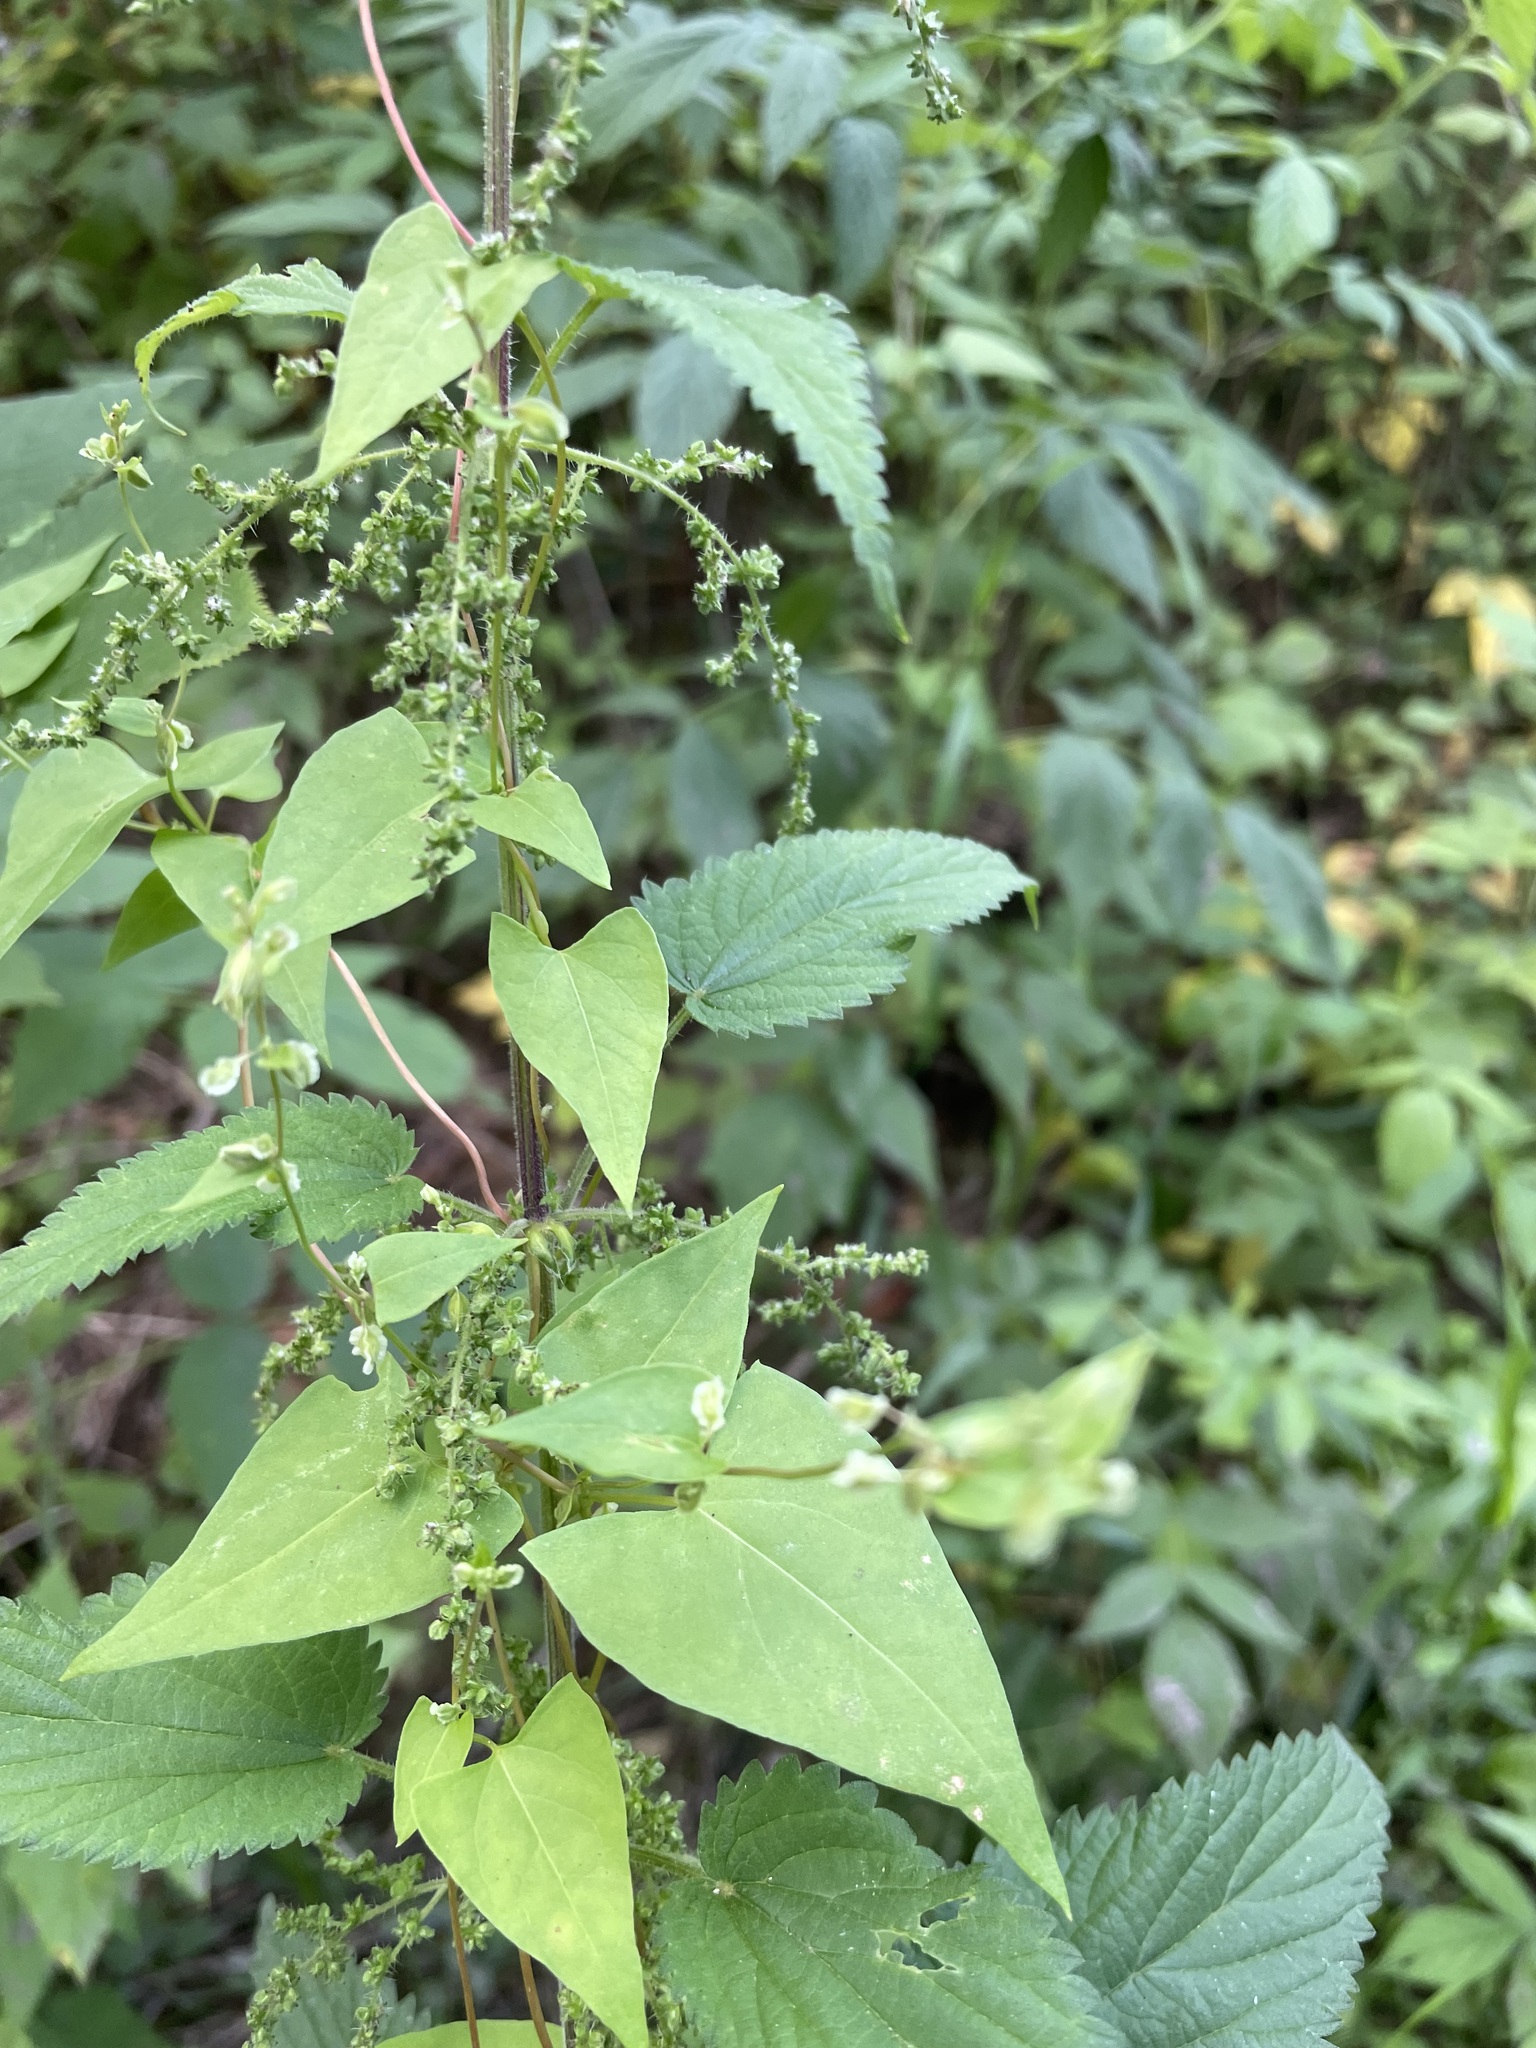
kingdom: Plantae
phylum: Tracheophyta
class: Magnoliopsida
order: Caryophyllales
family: Polygonaceae
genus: Fallopia
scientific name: Fallopia dumetorum
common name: Copse-bindweed
